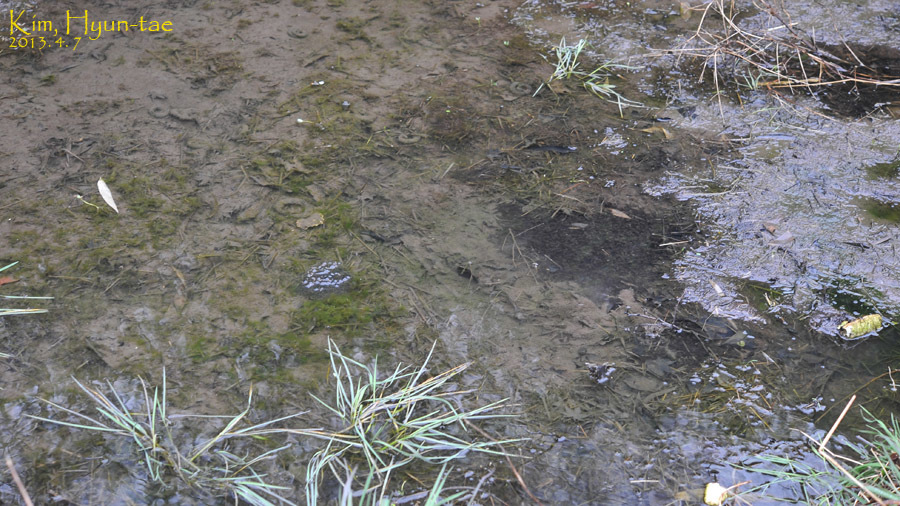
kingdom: Animalia
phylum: Chordata
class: Amphibia
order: Anura
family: Ranidae
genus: Rana
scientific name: Rana uenoi
